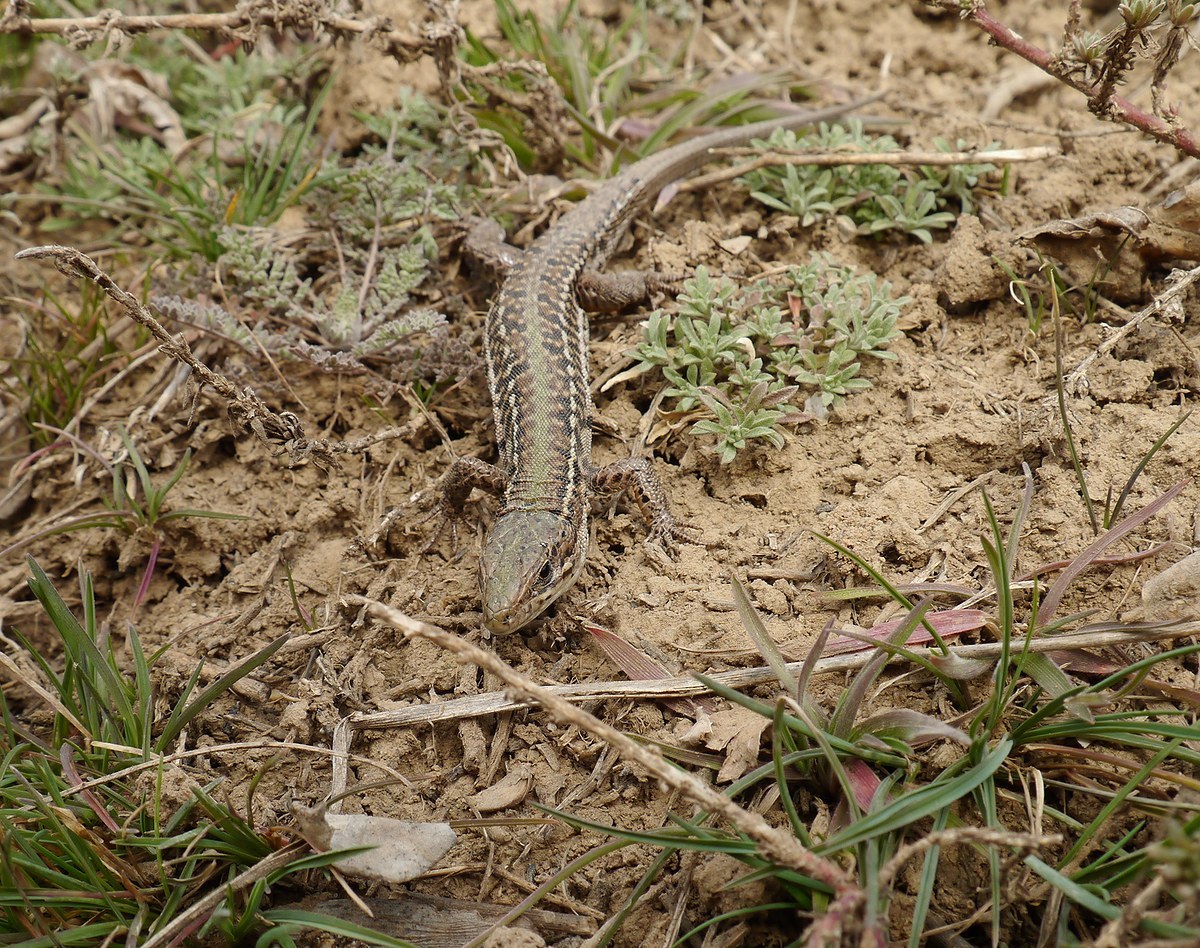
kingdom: Animalia
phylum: Chordata
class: Squamata
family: Lacertidae
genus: Podarcis
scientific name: Podarcis tauricus
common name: Balkan wall lizard
